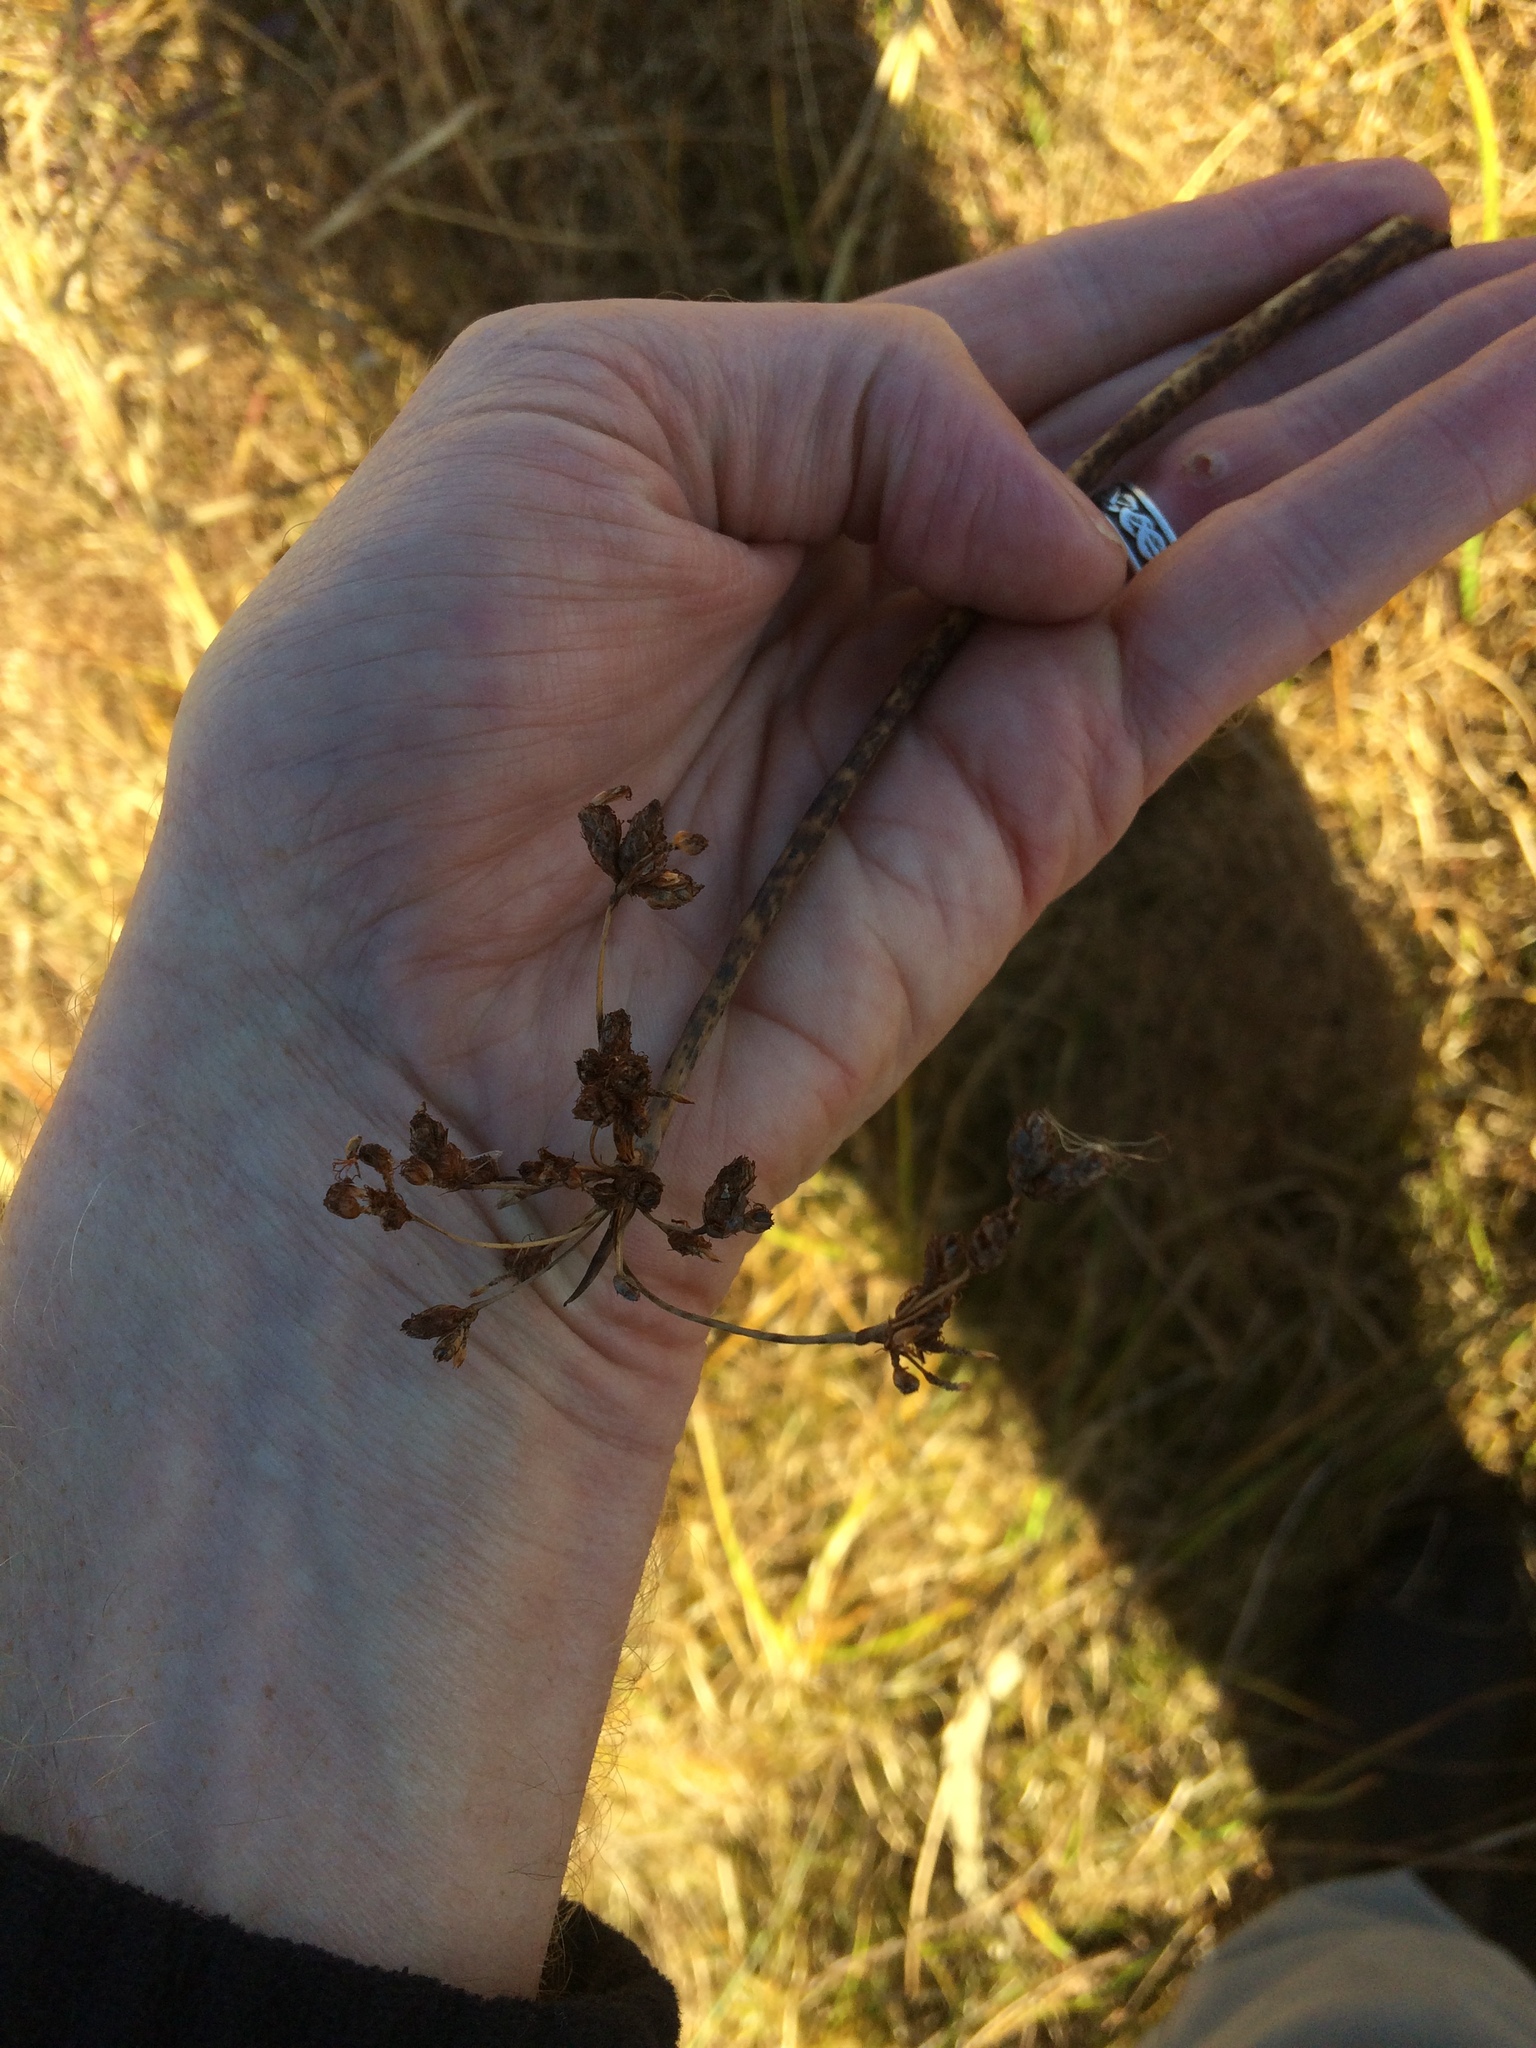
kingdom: Plantae
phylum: Tracheophyta
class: Liliopsida
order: Poales
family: Cyperaceae
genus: Schoenoplectus
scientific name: Schoenoplectus tabernaemontani
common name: Grey club-rush
